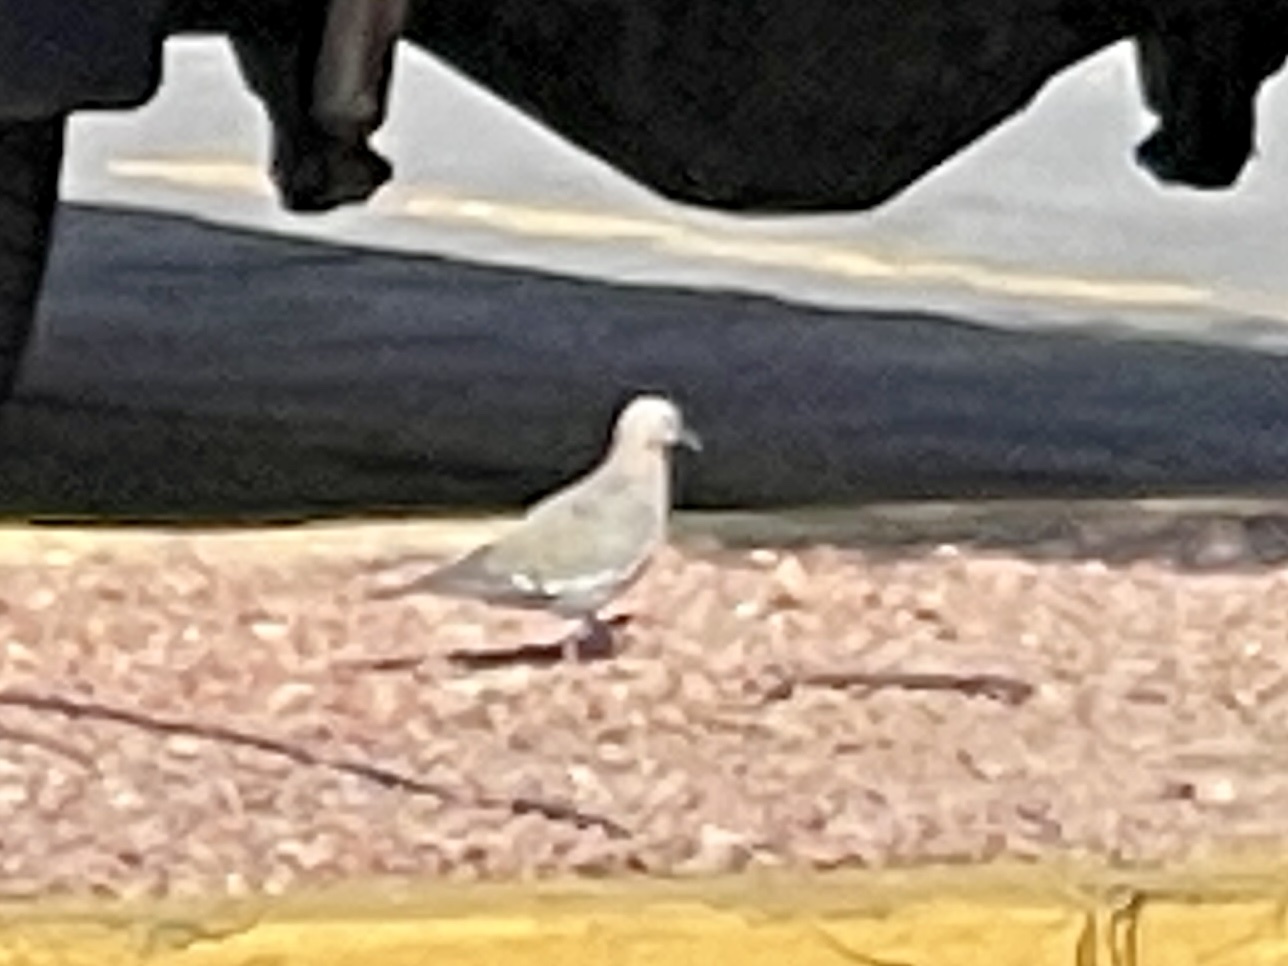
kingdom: Animalia
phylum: Chordata
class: Aves
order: Columbiformes
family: Columbidae
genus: Zenaida
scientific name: Zenaida asiatica
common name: White-winged dove
